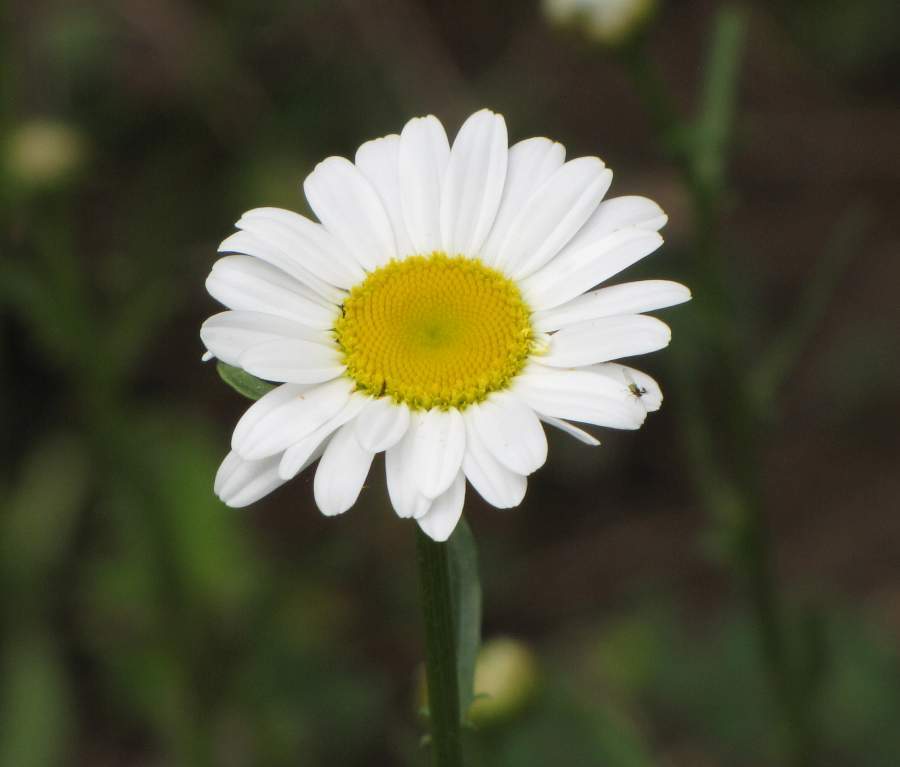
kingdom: Plantae
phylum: Tracheophyta
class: Magnoliopsida
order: Asterales
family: Asteraceae
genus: Leucanthemum
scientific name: Leucanthemum vulgare
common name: Oxeye daisy
